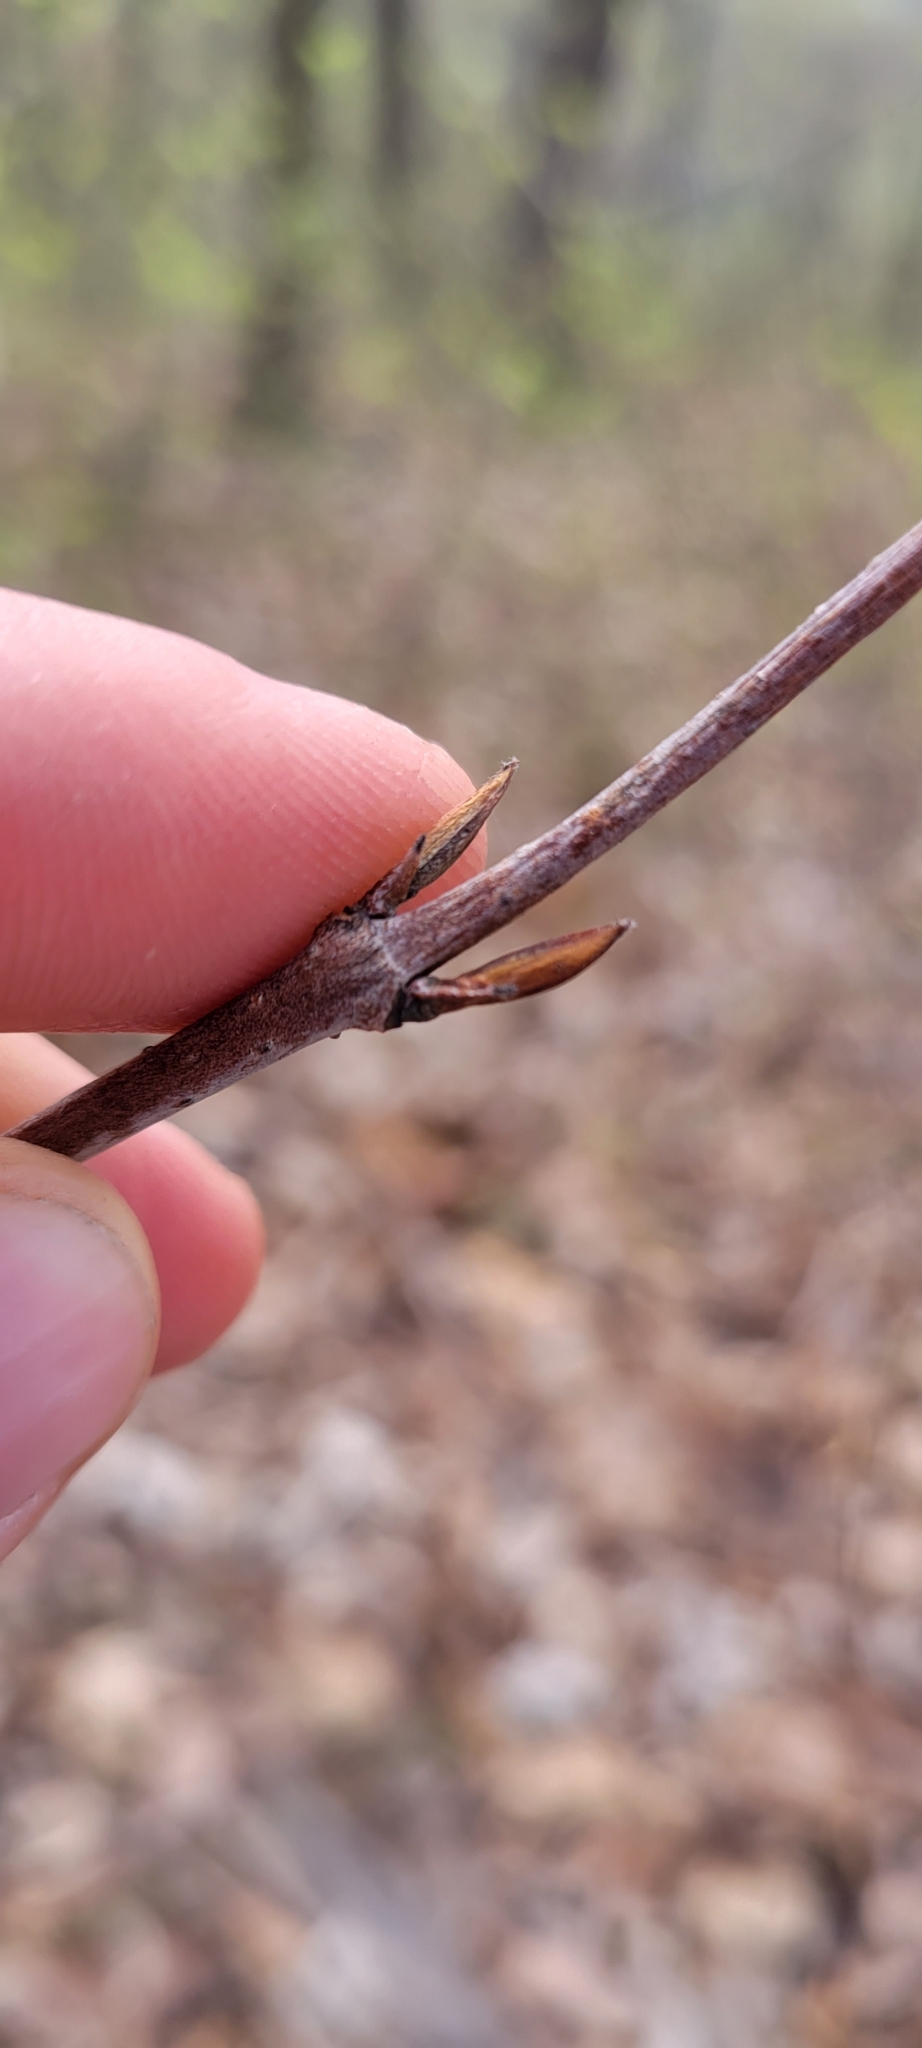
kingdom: Plantae
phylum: Tracheophyta
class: Magnoliopsida
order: Dipsacales
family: Viburnaceae
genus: Viburnum
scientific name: Viburnum acerifolium
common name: Dockmackie
